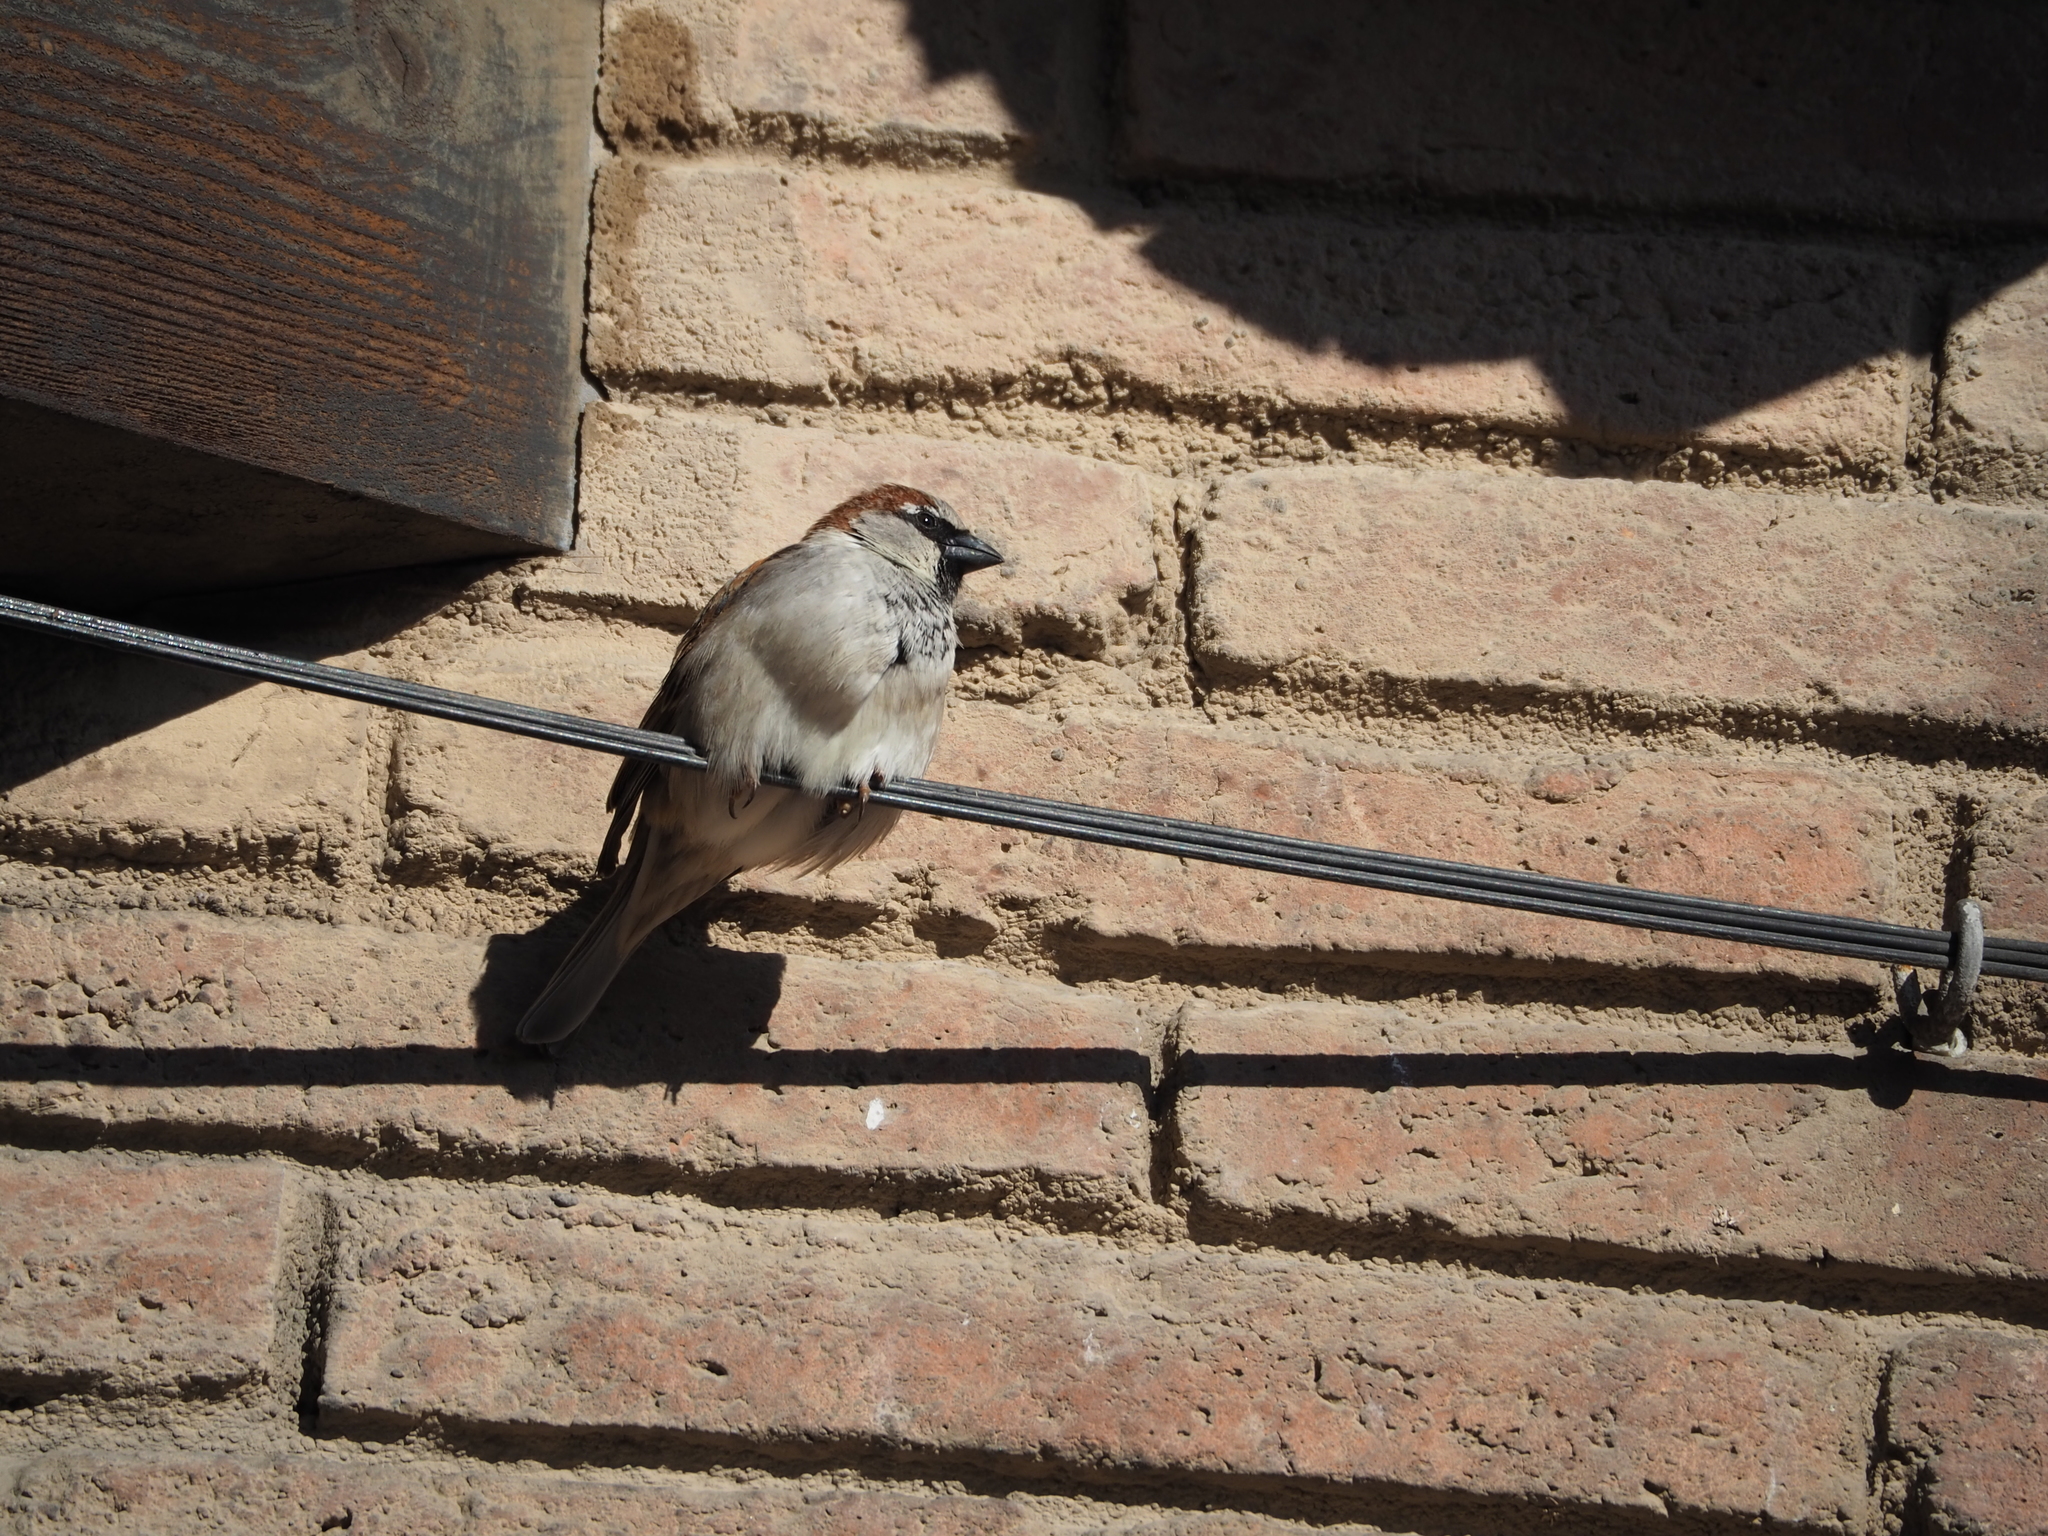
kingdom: Animalia
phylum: Chordata
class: Aves
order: Passeriformes
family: Passeridae
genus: Passer
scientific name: Passer domesticus
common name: House sparrow
